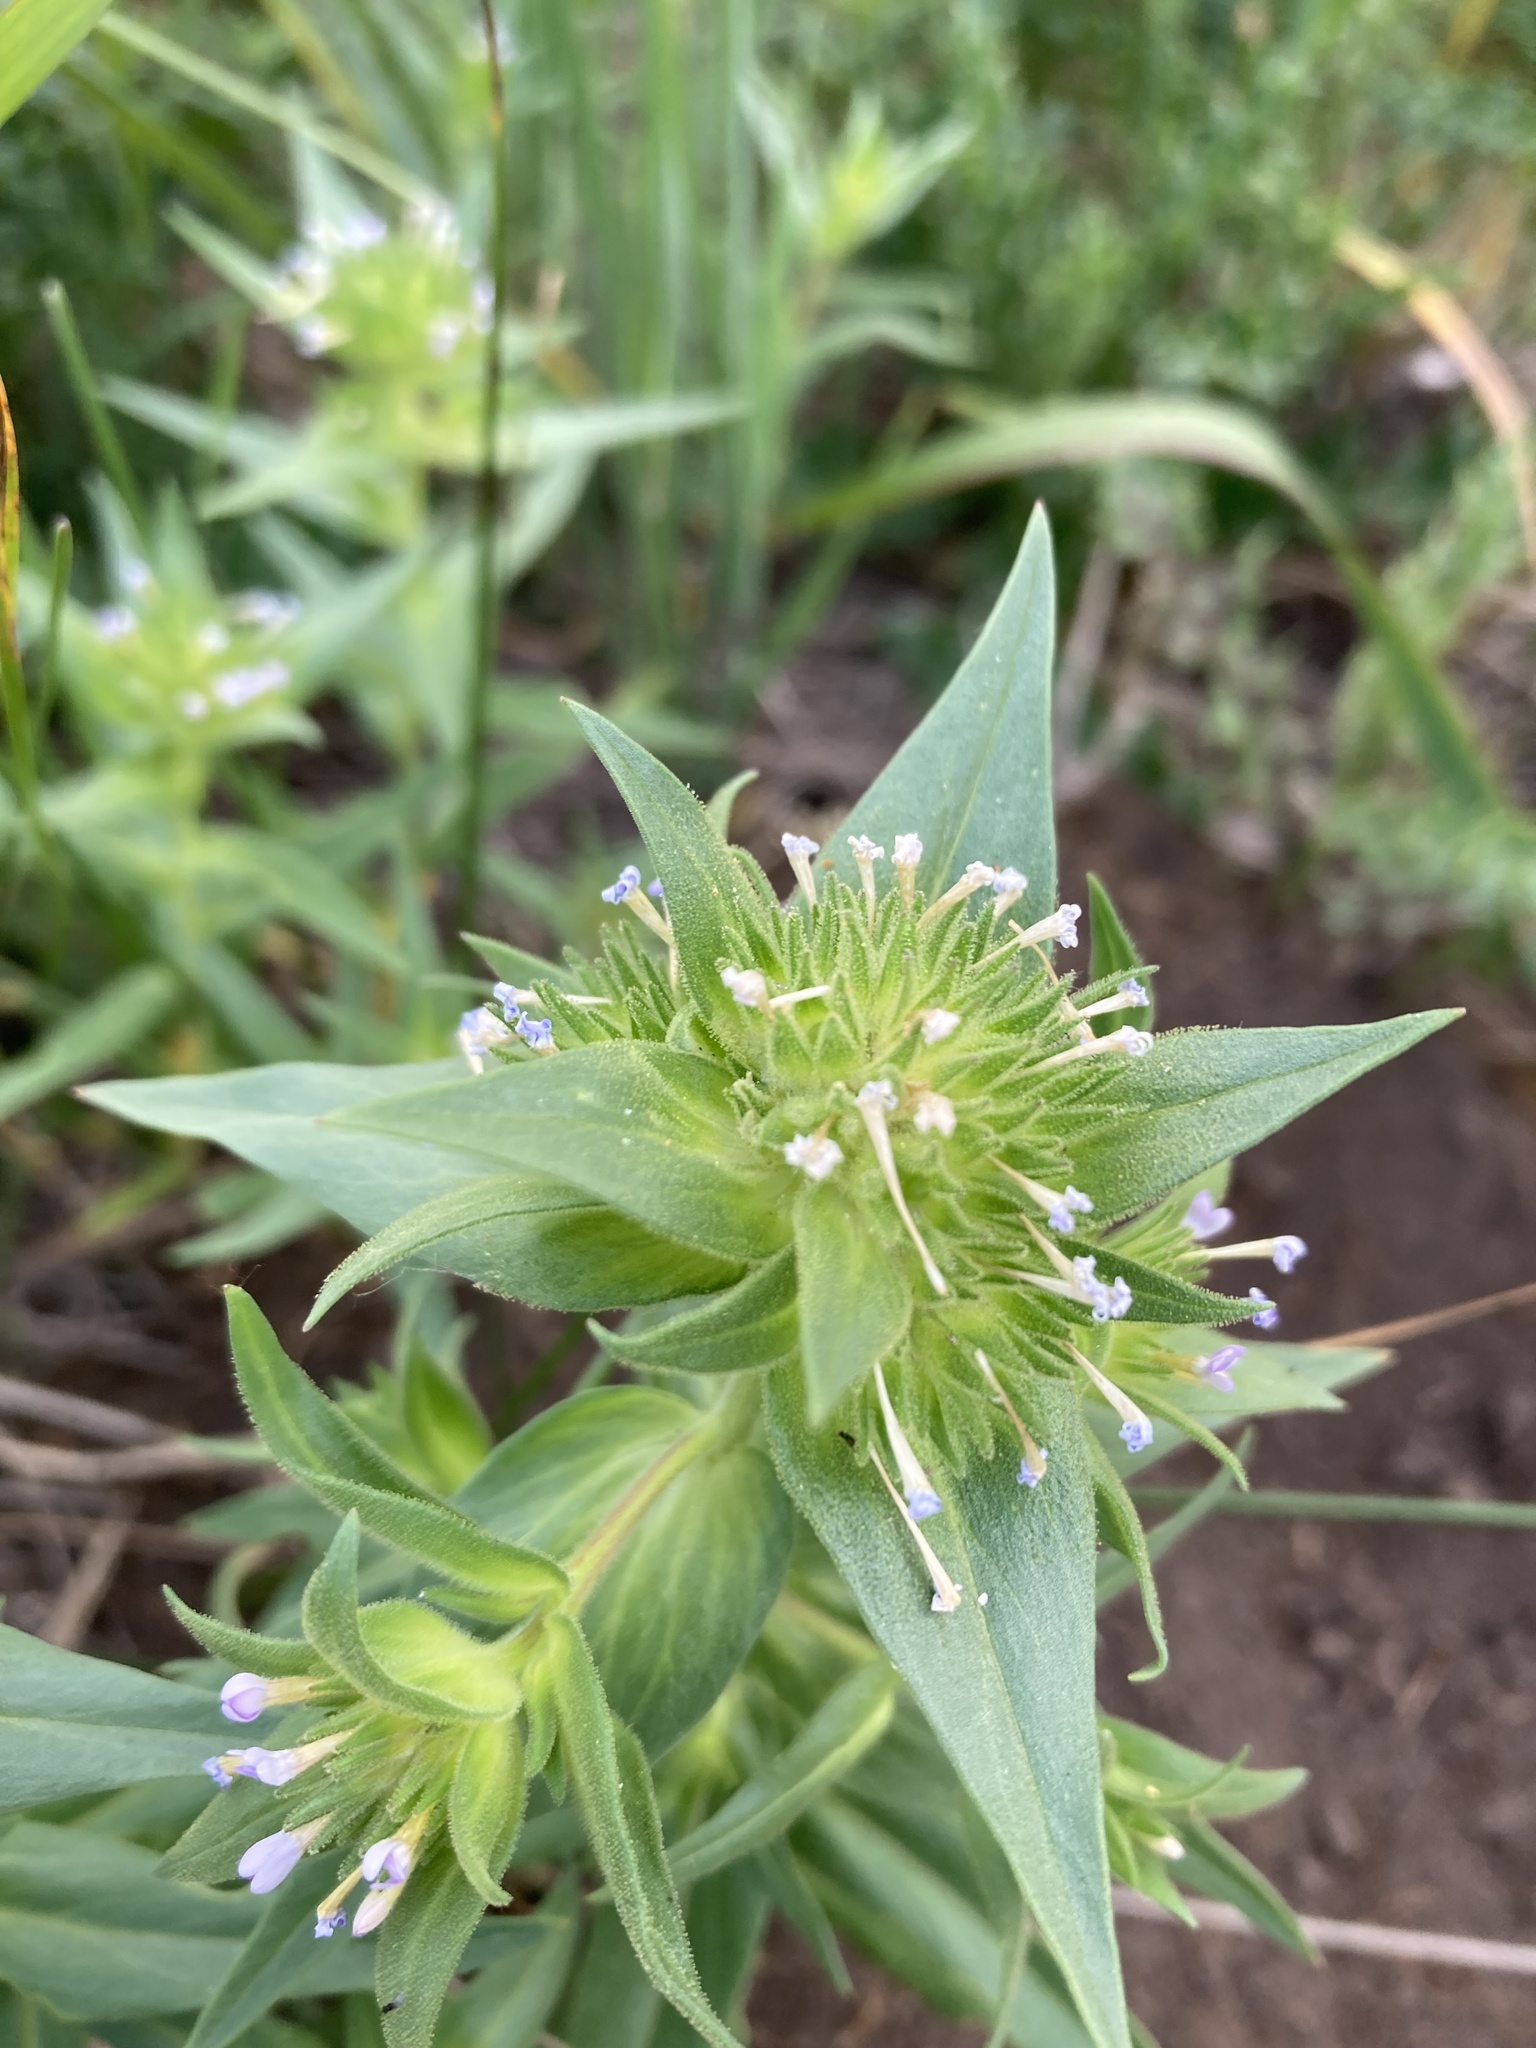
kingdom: Plantae
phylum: Tracheophyta
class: Magnoliopsida
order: Ericales
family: Polemoniaceae
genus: Collomia
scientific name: Collomia linearis
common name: Tiny trumpet
